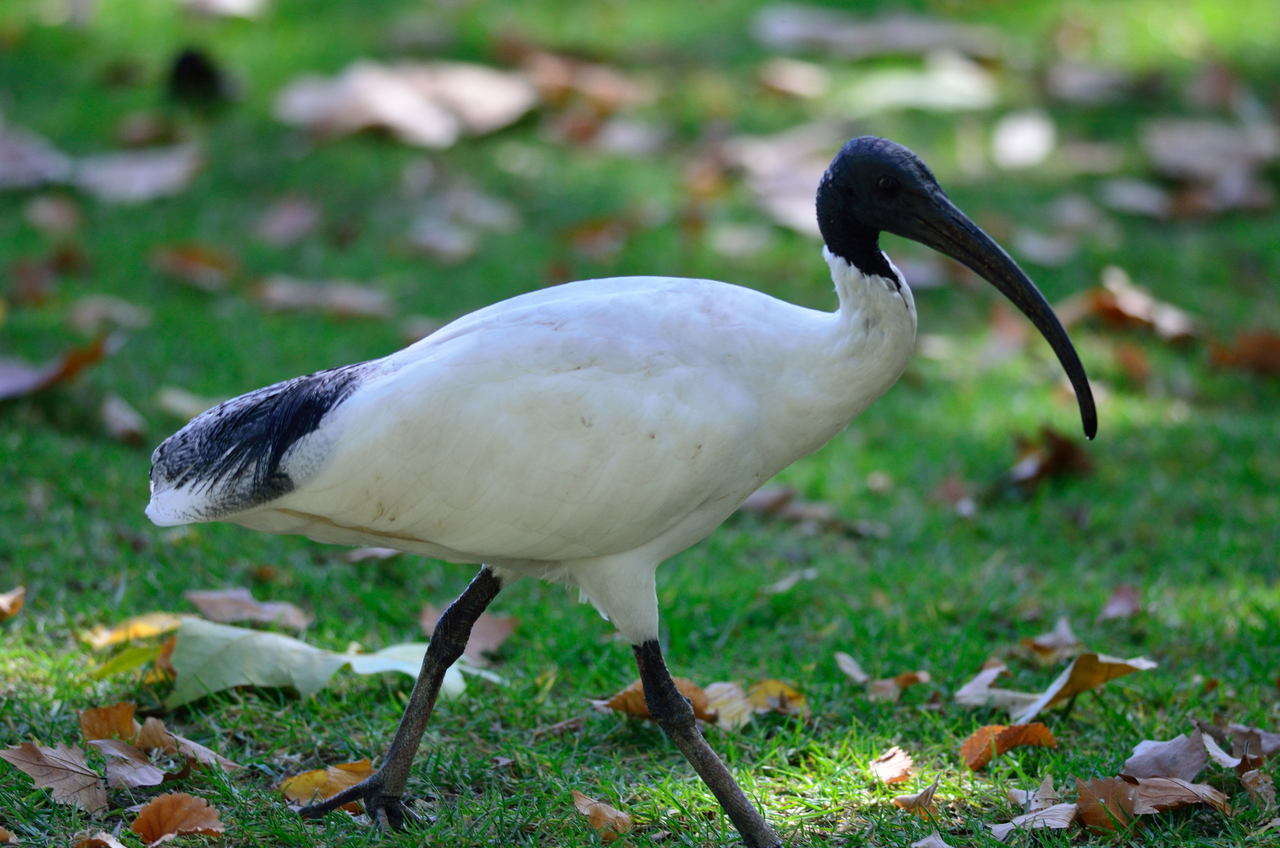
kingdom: Animalia
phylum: Chordata
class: Aves
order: Pelecaniformes
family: Threskiornithidae
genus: Threskiornis
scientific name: Threskiornis molucca
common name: Australian white ibis
